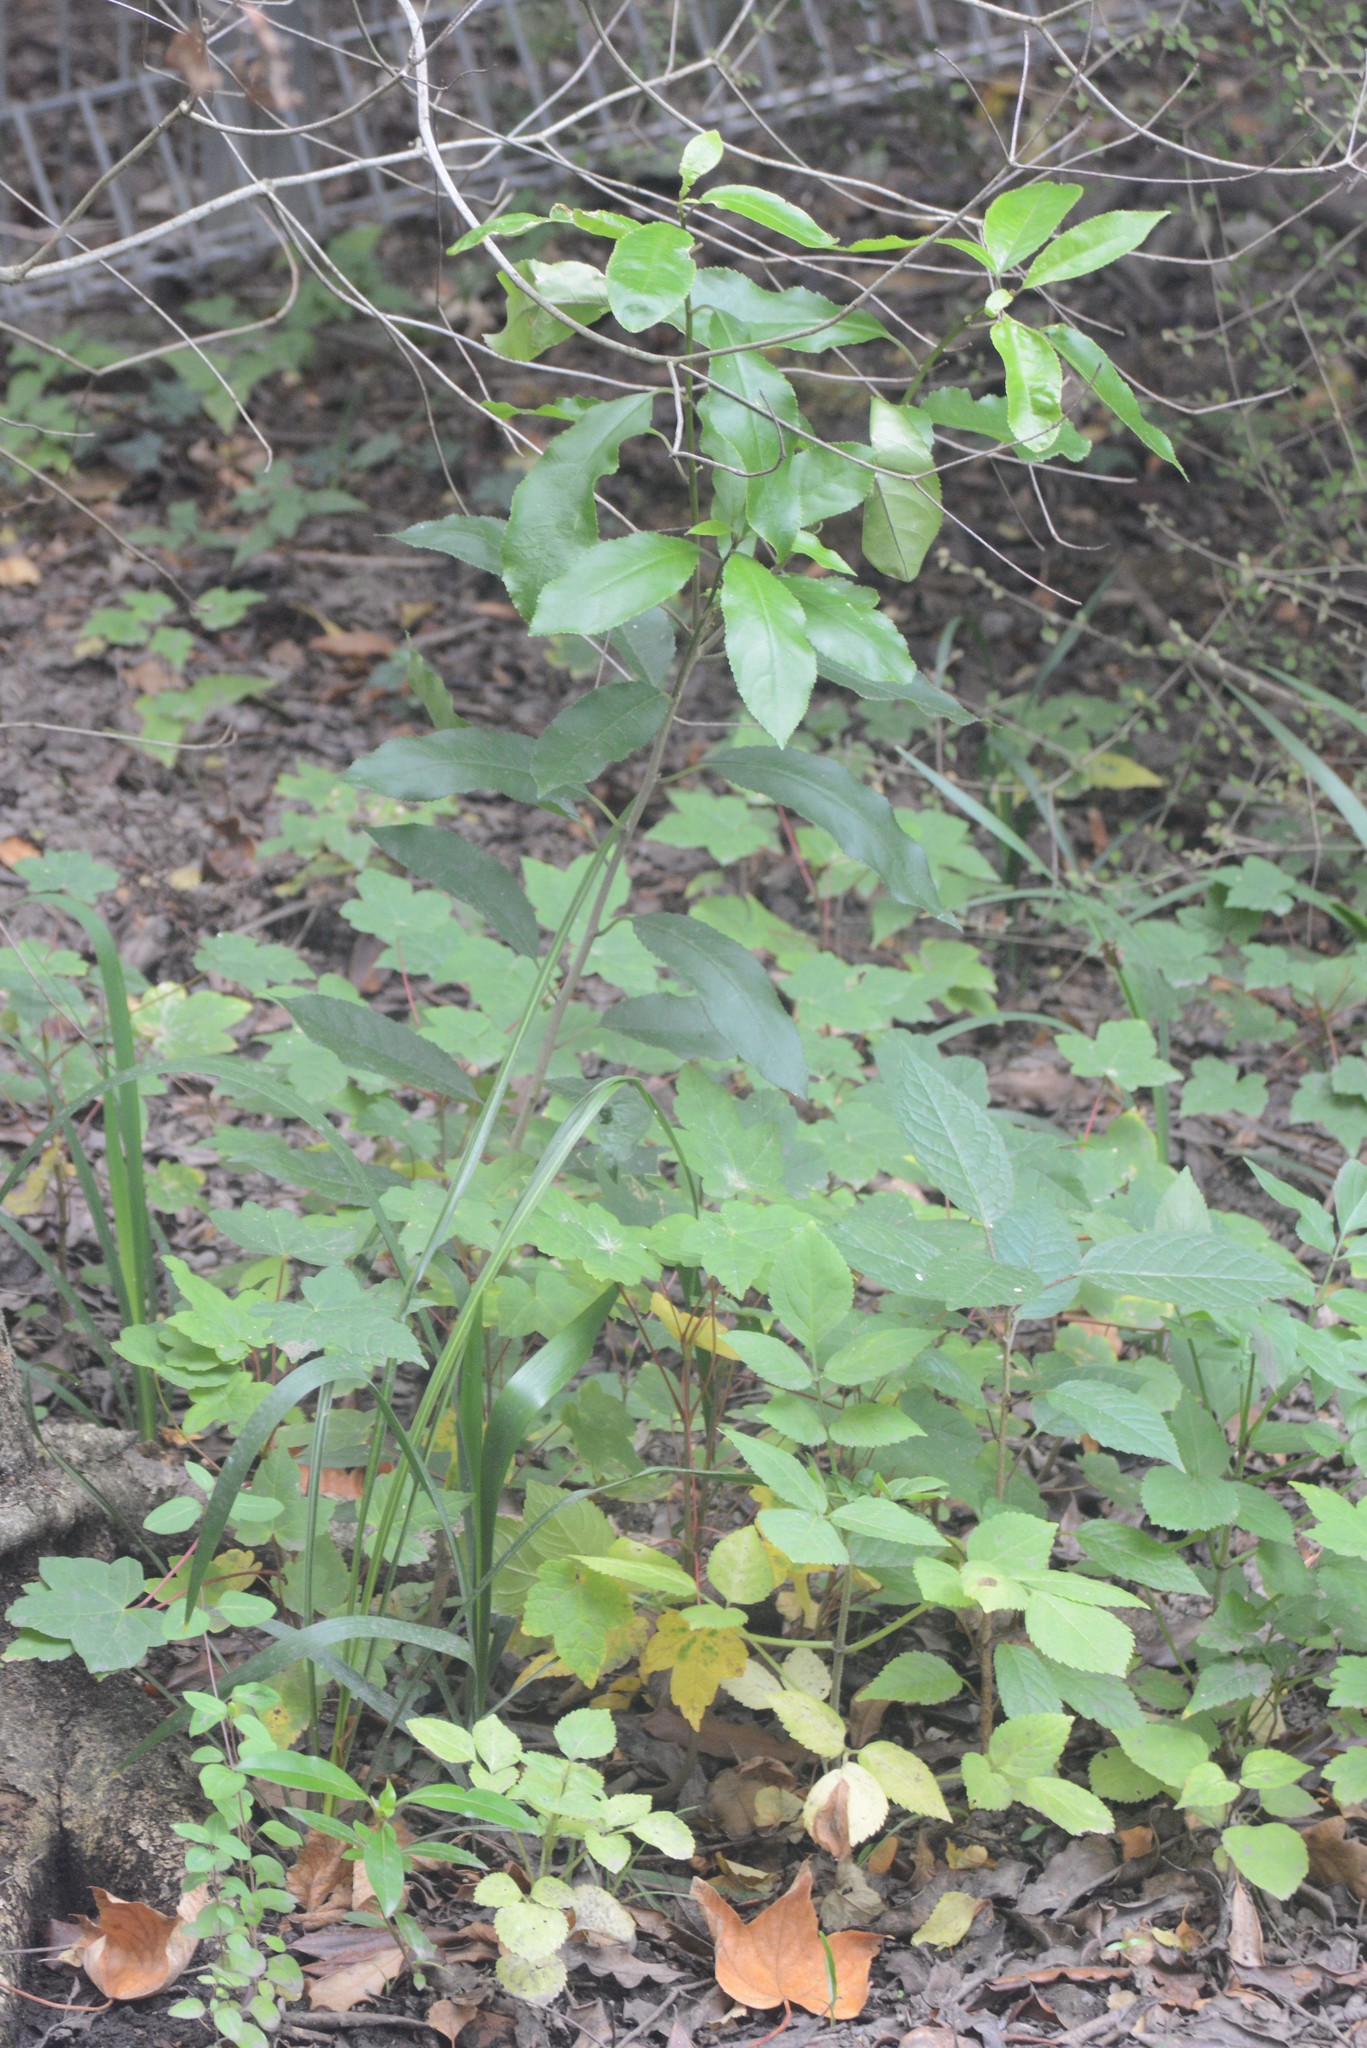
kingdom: Plantae
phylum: Tracheophyta
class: Magnoliopsida
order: Malpighiales
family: Violaceae
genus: Melicytus
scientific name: Melicytus ramiflorus
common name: Mahoe
